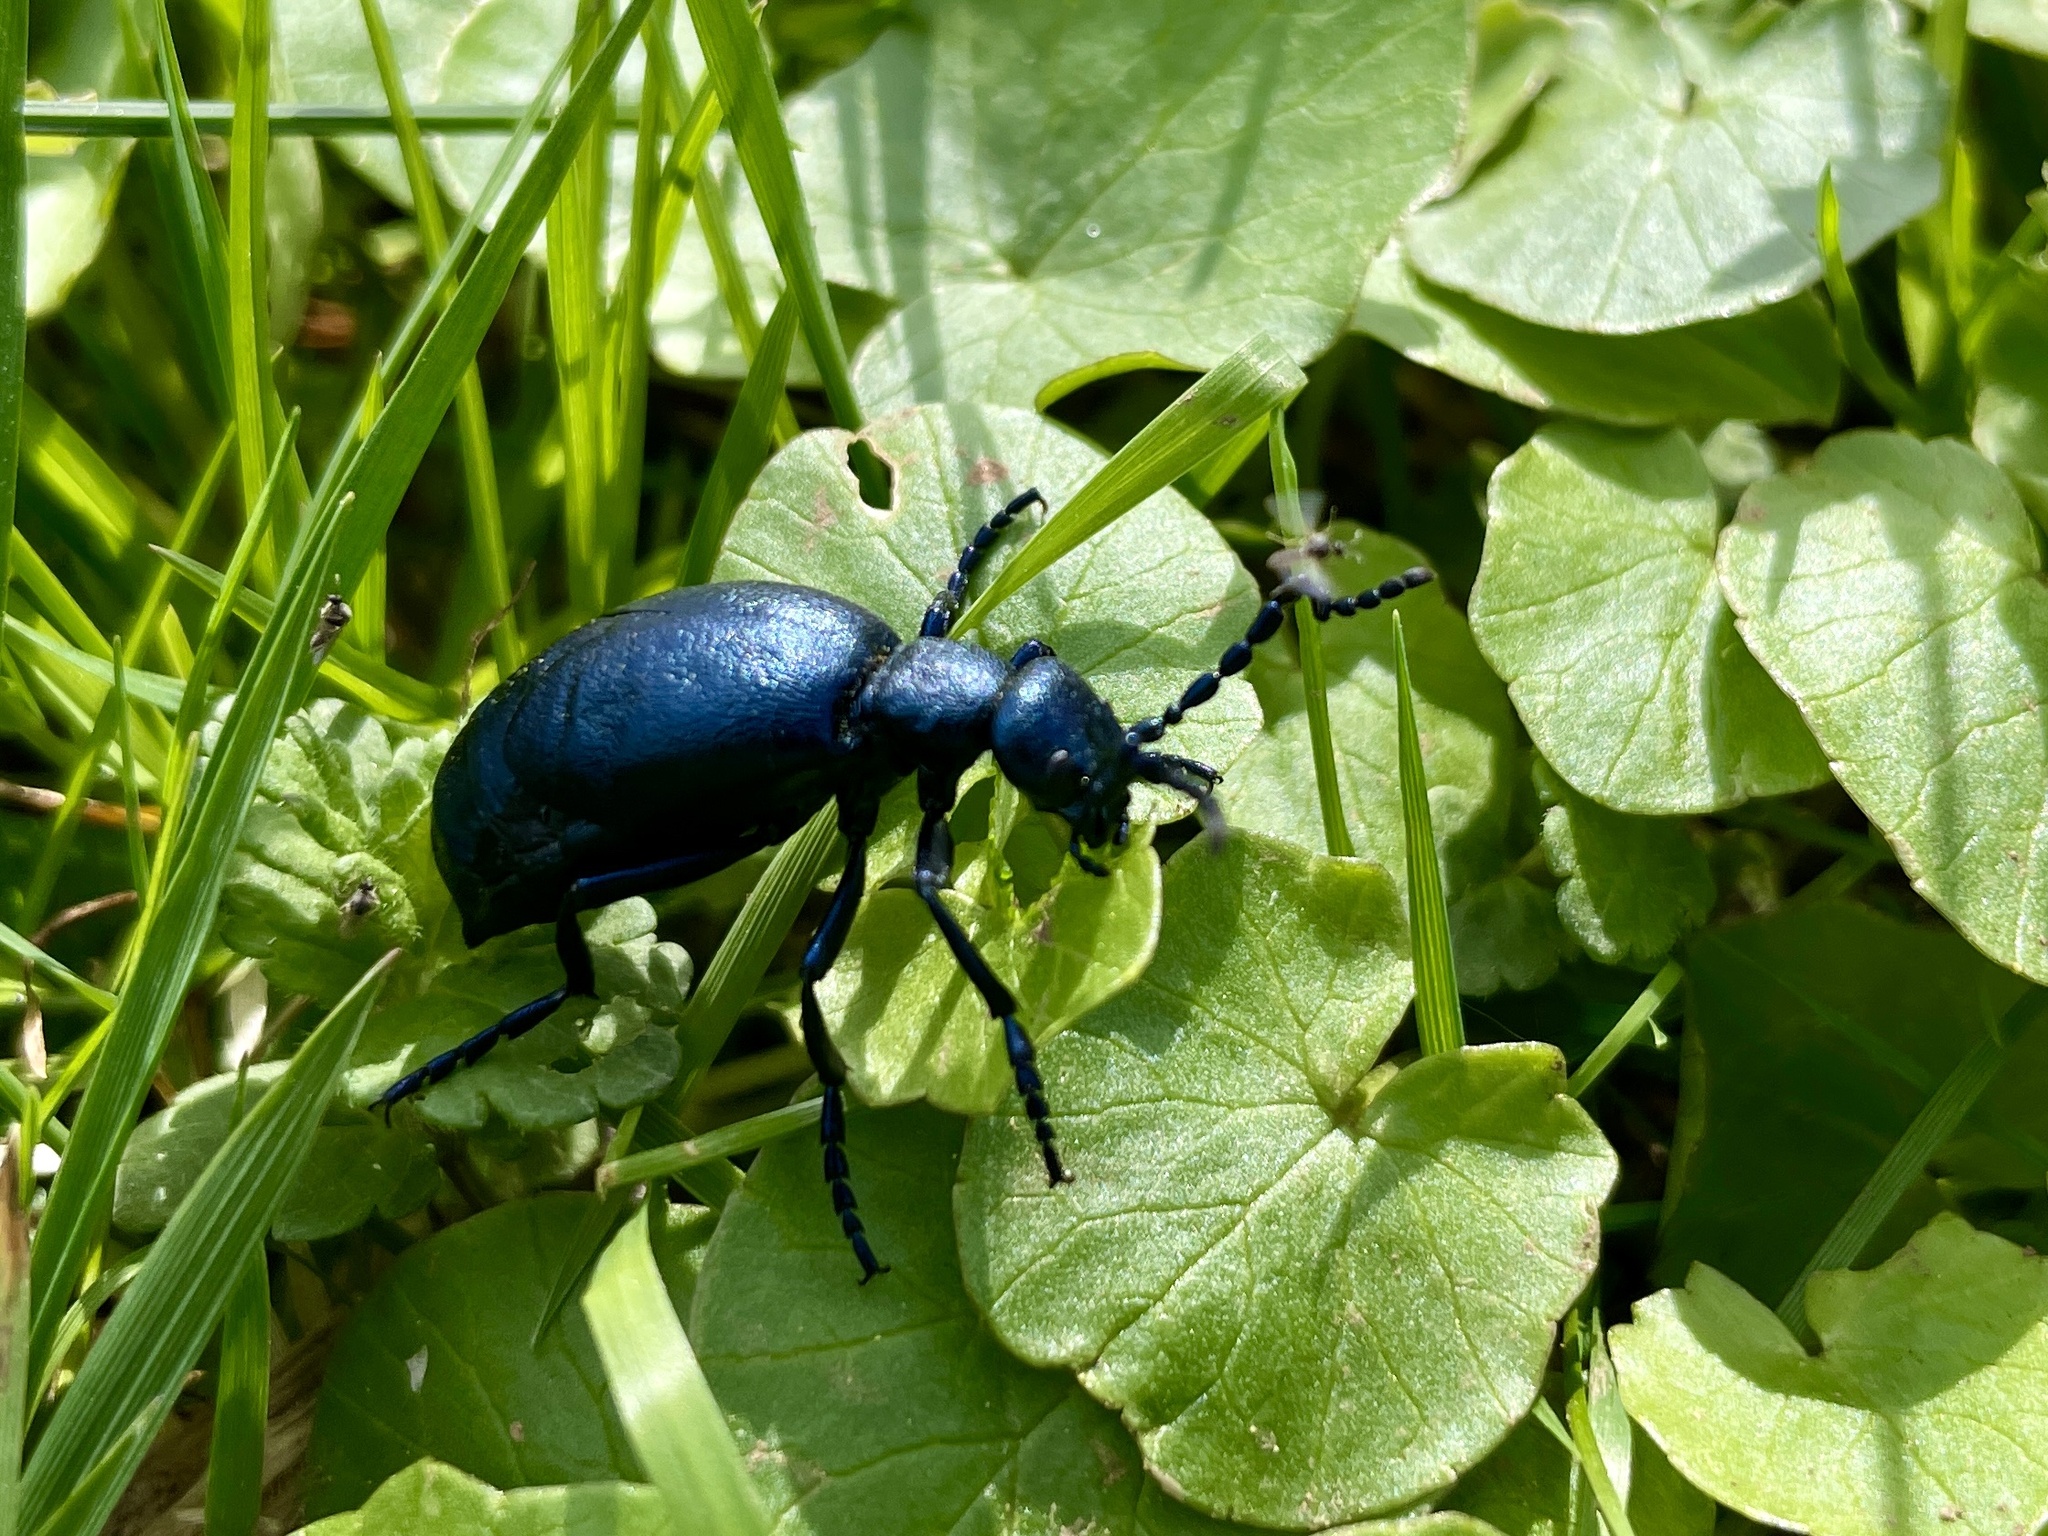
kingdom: Animalia
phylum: Arthropoda
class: Insecta
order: Coleoptera
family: Meloidae
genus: Meloe
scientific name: Meloe violaceus
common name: Violet oil-beetle
